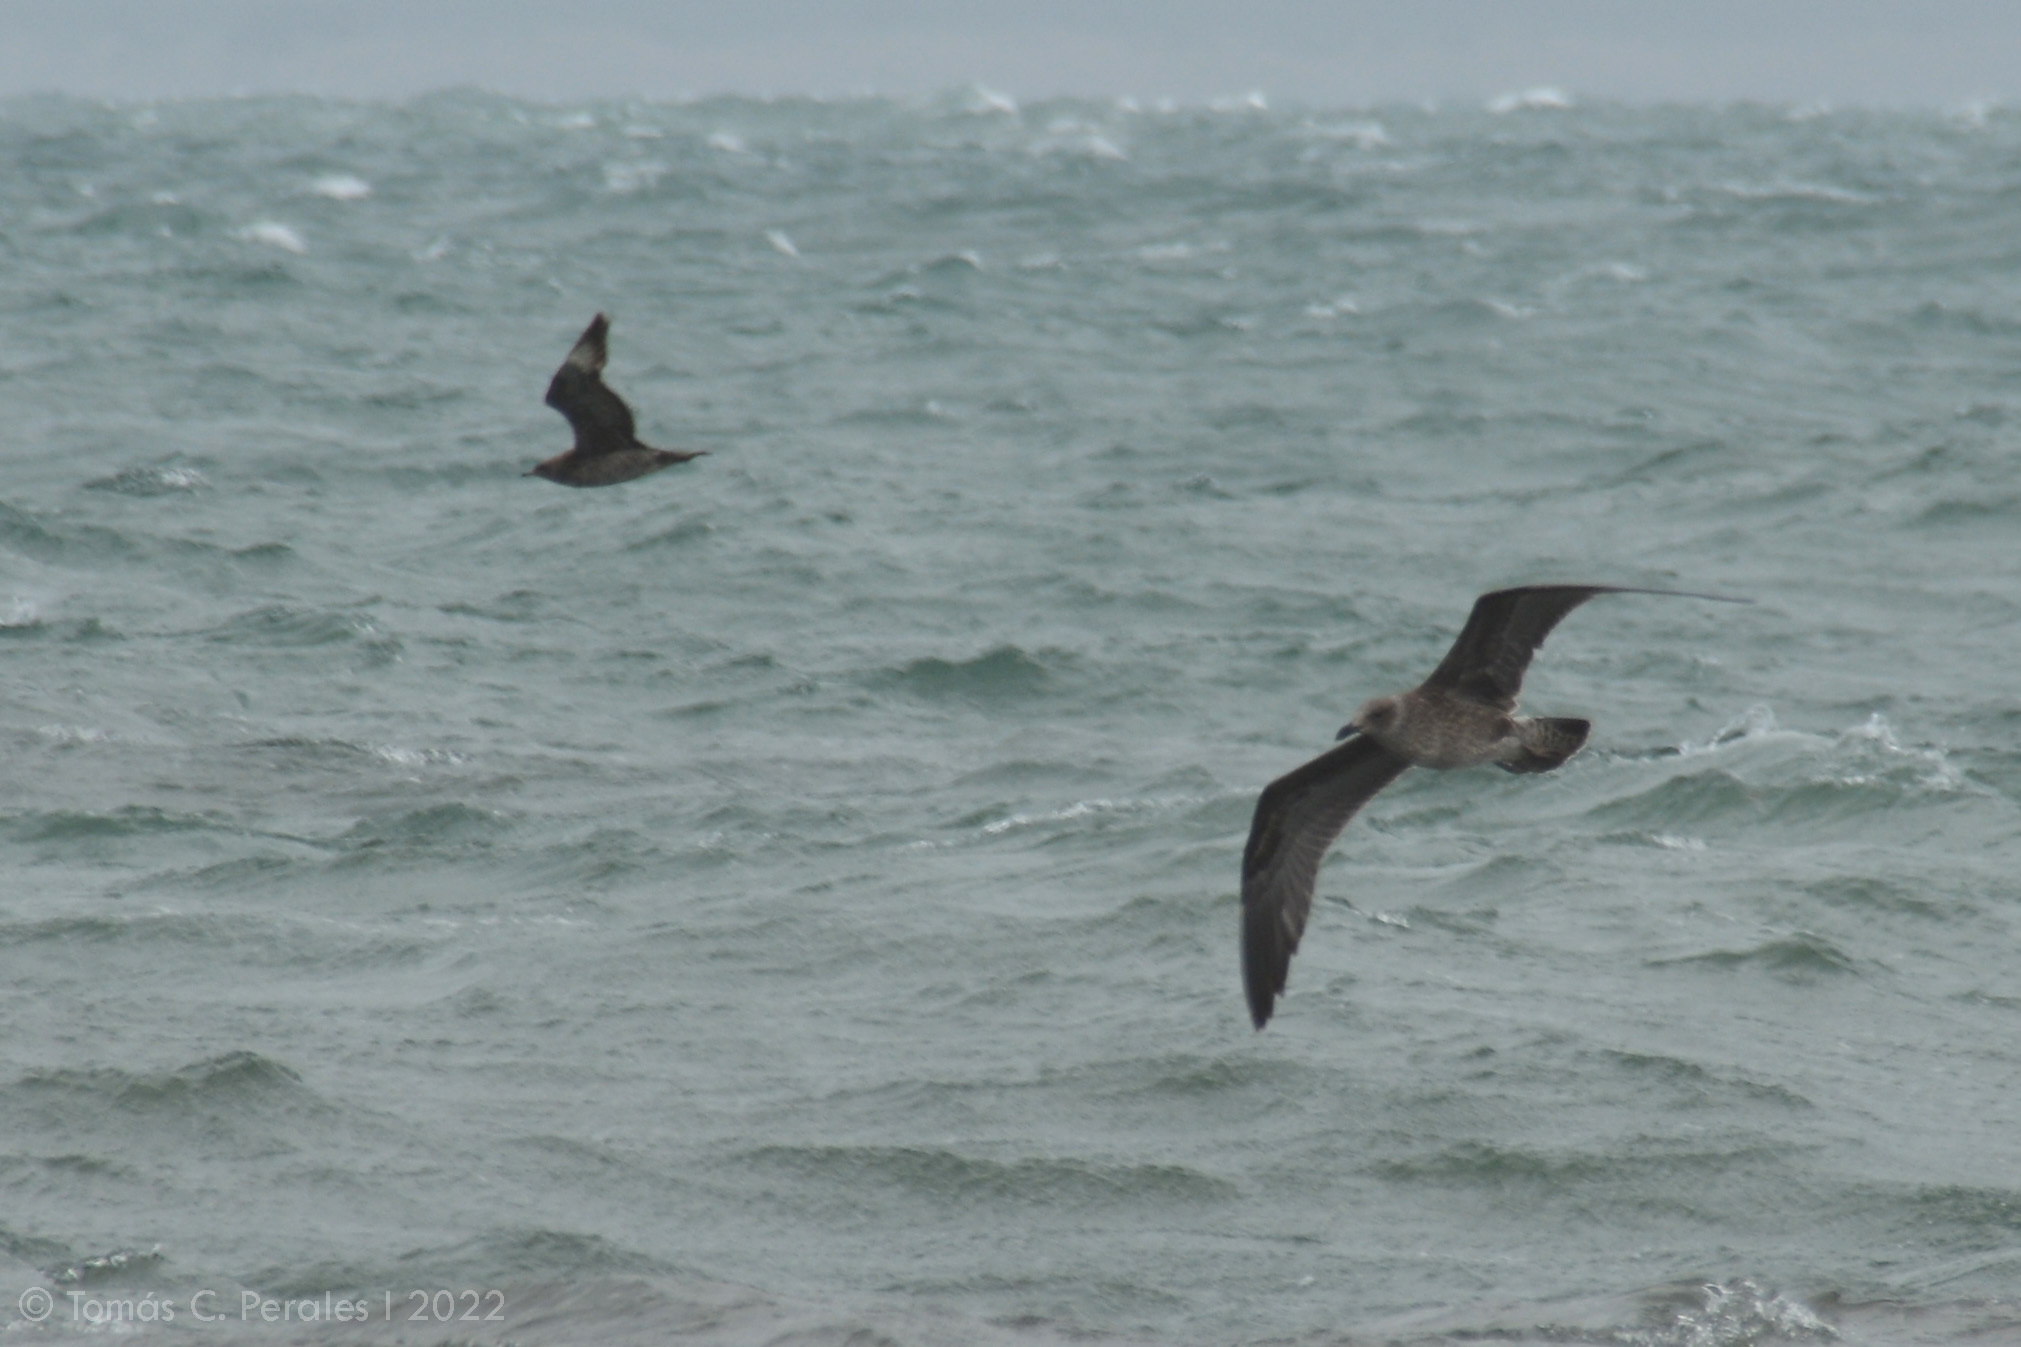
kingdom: Animalia
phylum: Chordata
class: Aves
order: Charadriiformes
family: Laridae
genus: Larus
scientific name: Larus dominicanus
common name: Kelp gull
